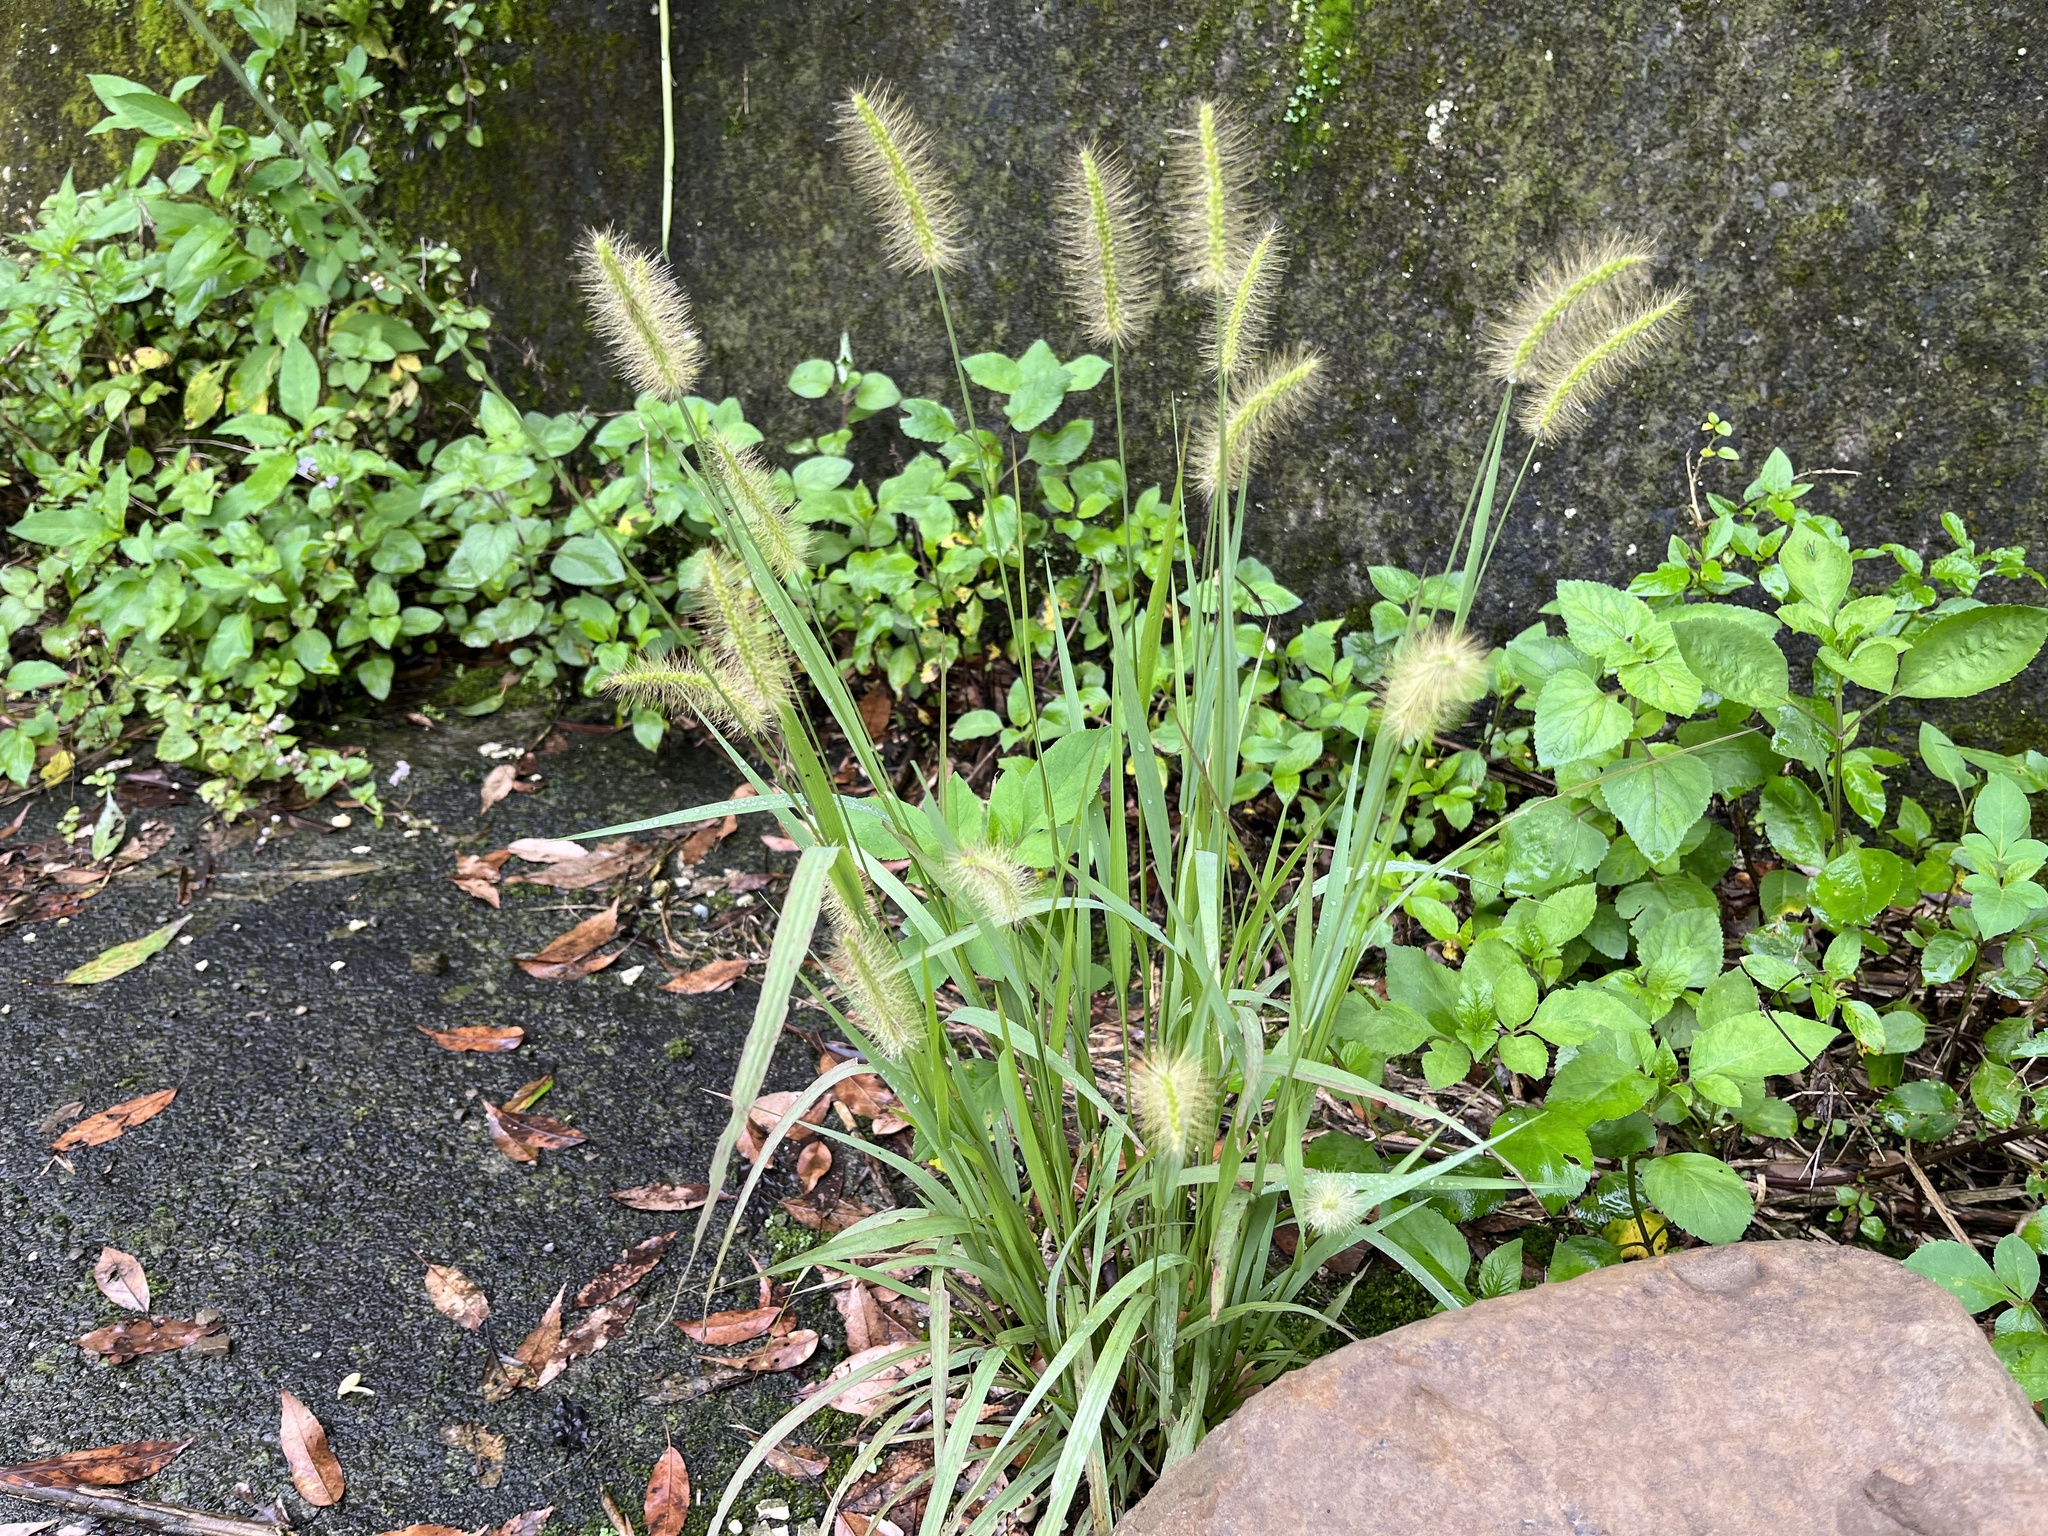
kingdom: Plantae
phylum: Tracheophyta
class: Liliopsida
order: Poales
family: Poaceae
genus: Setaria
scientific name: Setaria parviflora
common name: Knotroot bristle-grass
